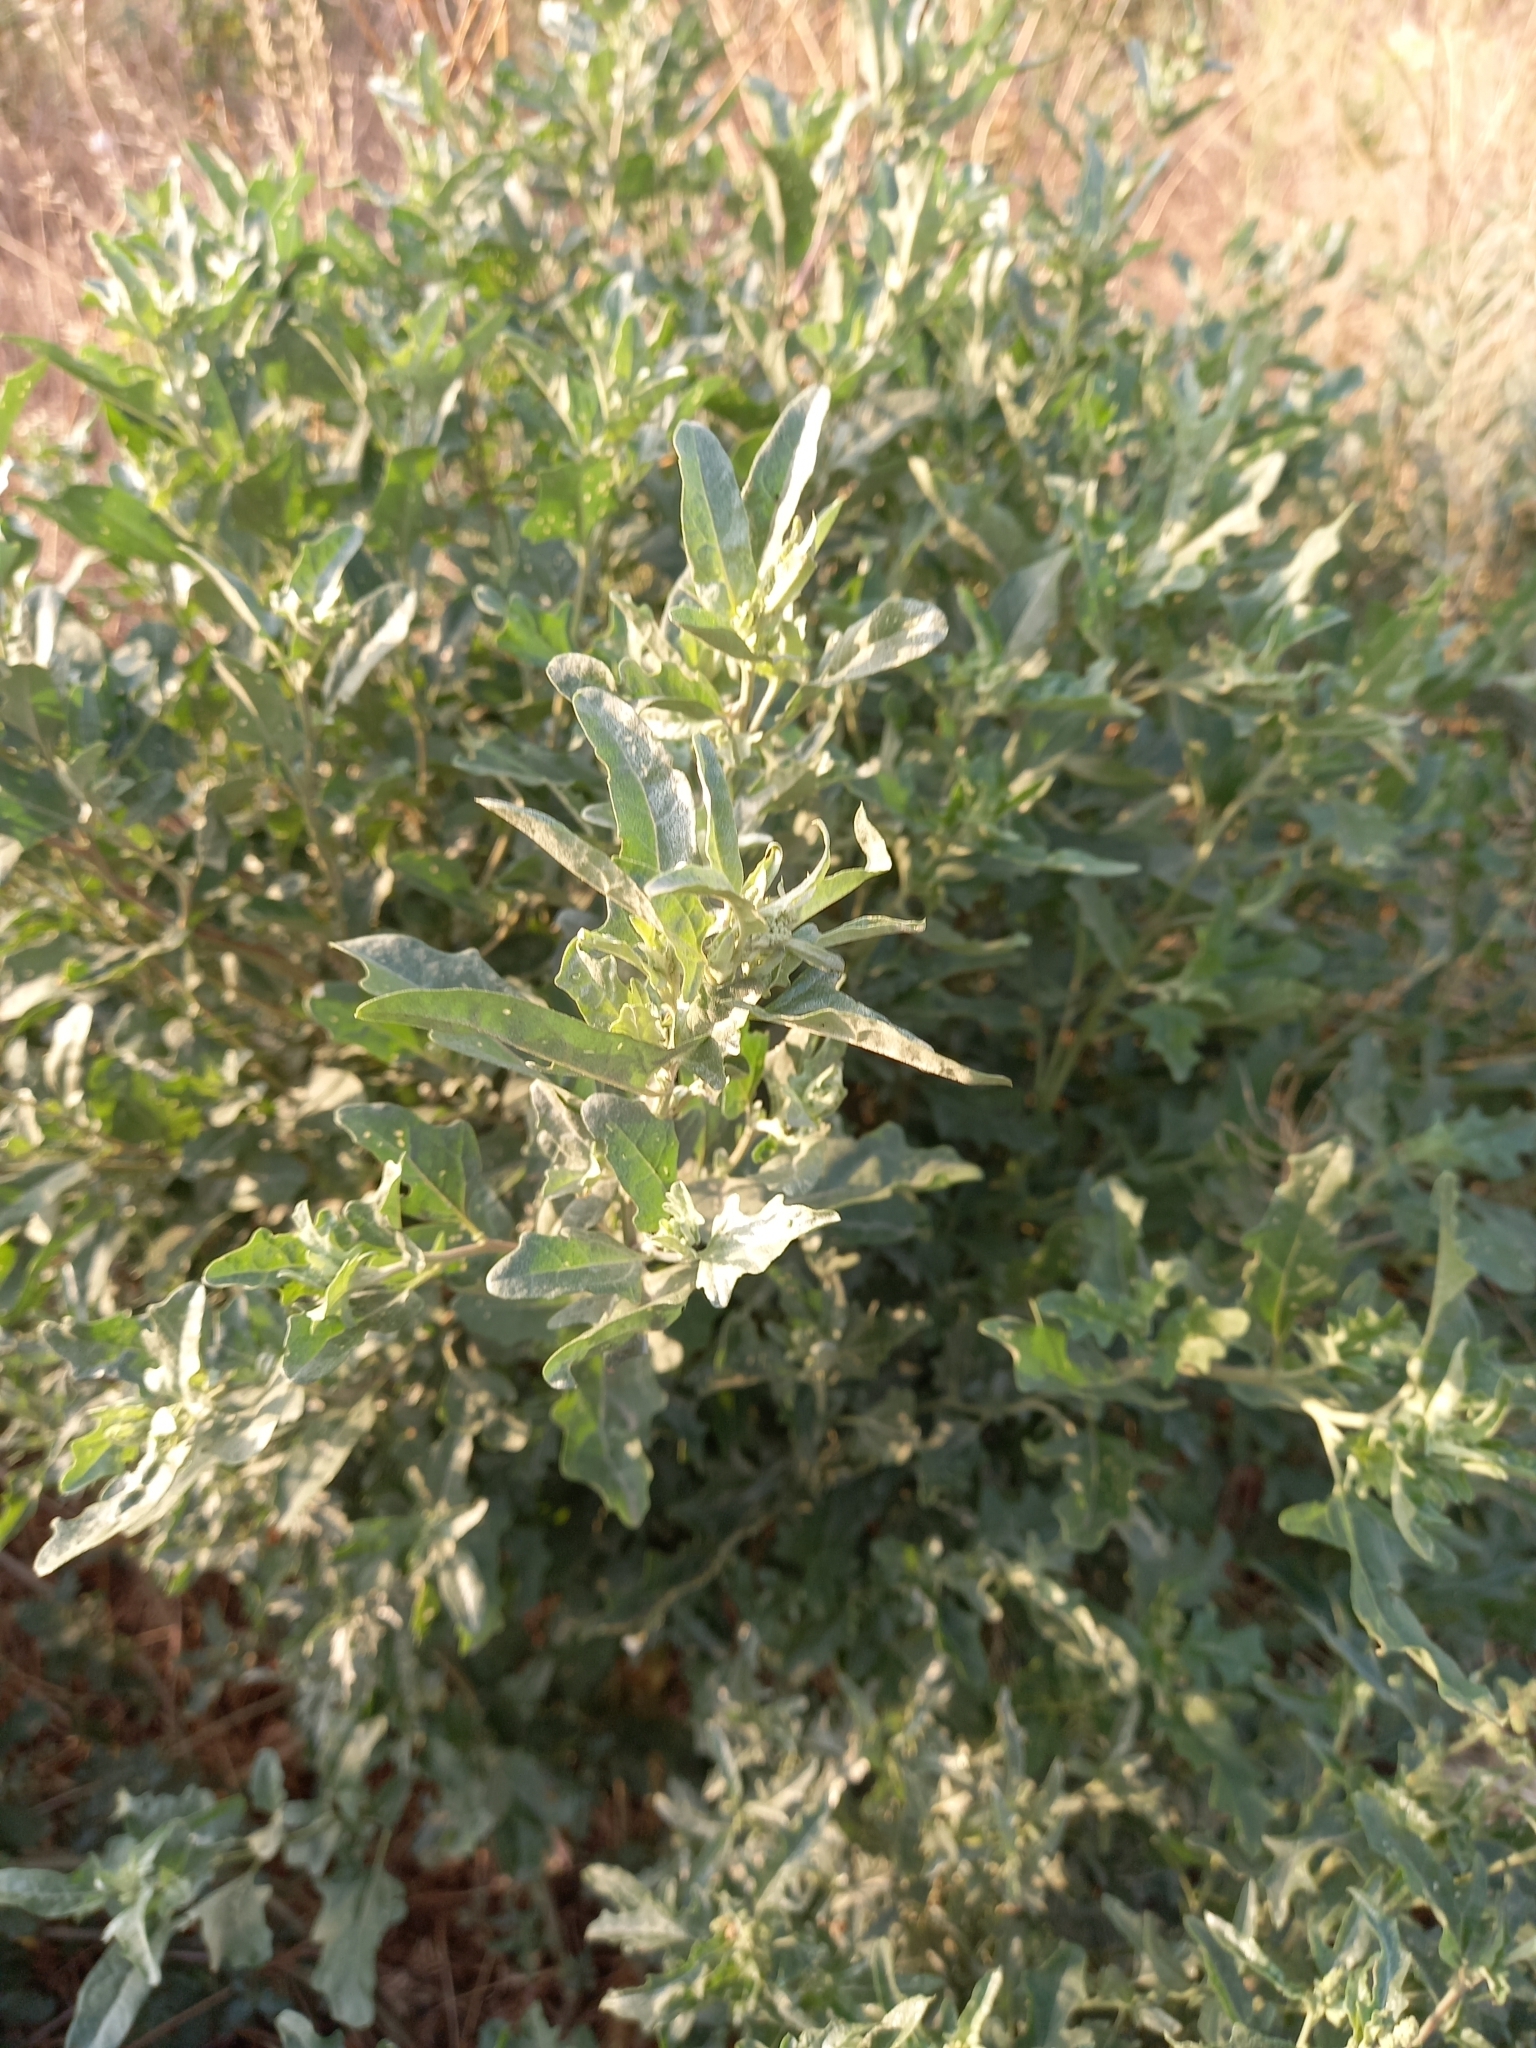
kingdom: Plantae
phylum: Tracheophyta
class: Magnoliopsida
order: Caryophyllales
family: Amaranthaceae
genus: Atriplex
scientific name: Atriplex tatarica
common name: Tatarian orache
